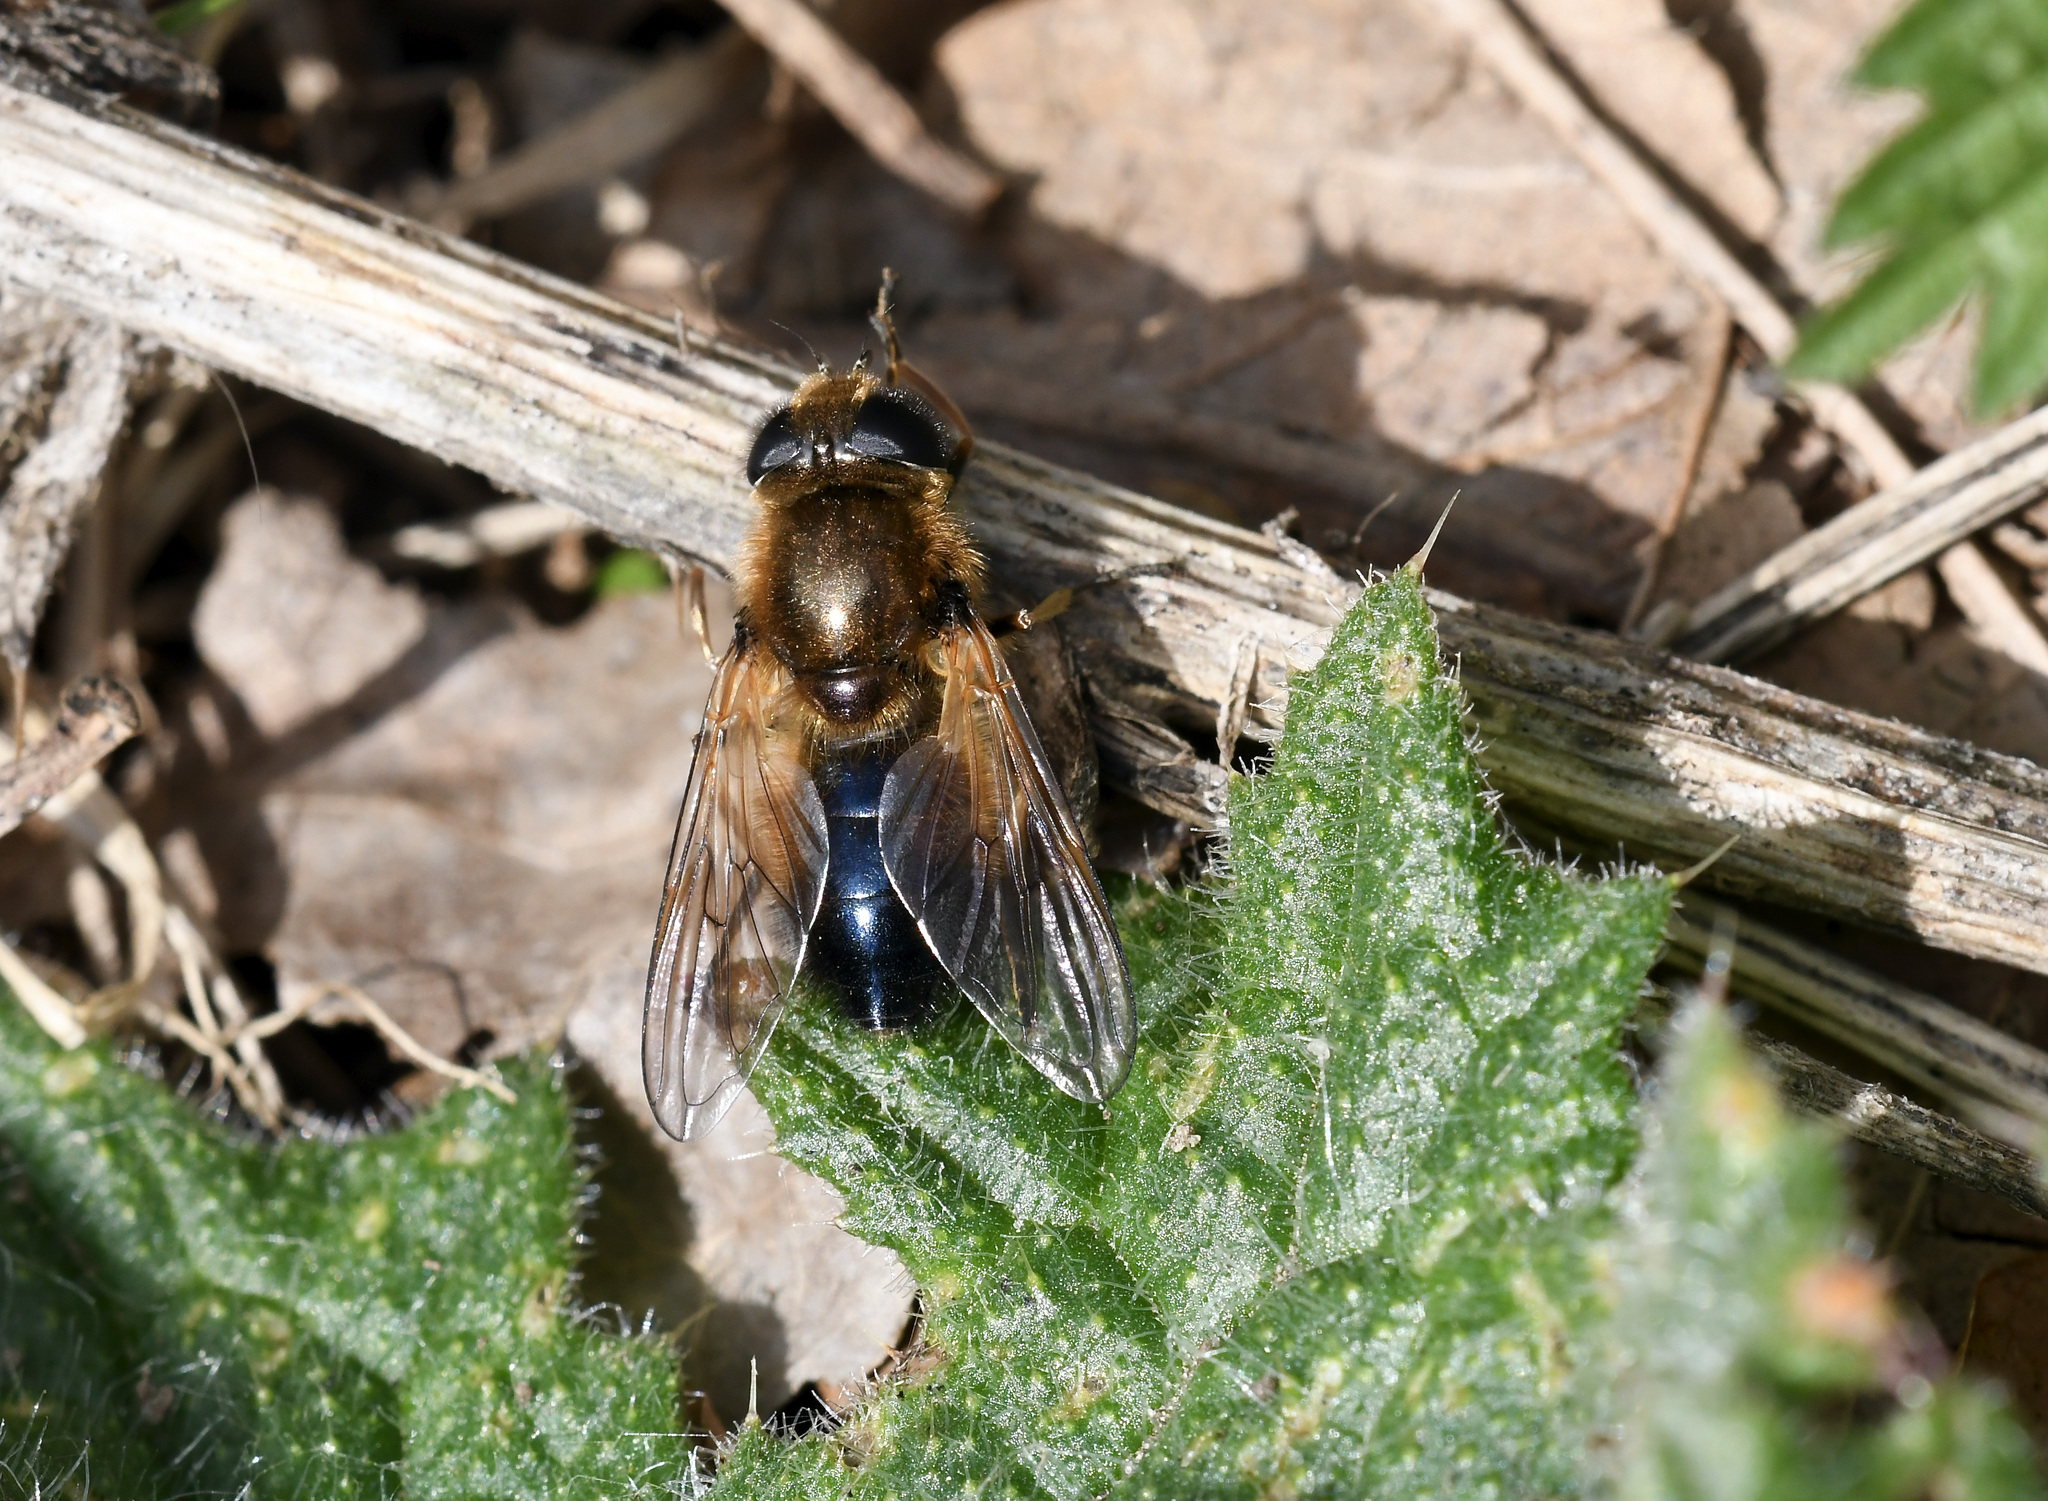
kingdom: Animalia
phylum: Arthropoda
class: Insecta
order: Diptera
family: Syrphidae
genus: Cheilosia
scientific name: Cheilosia corydon
